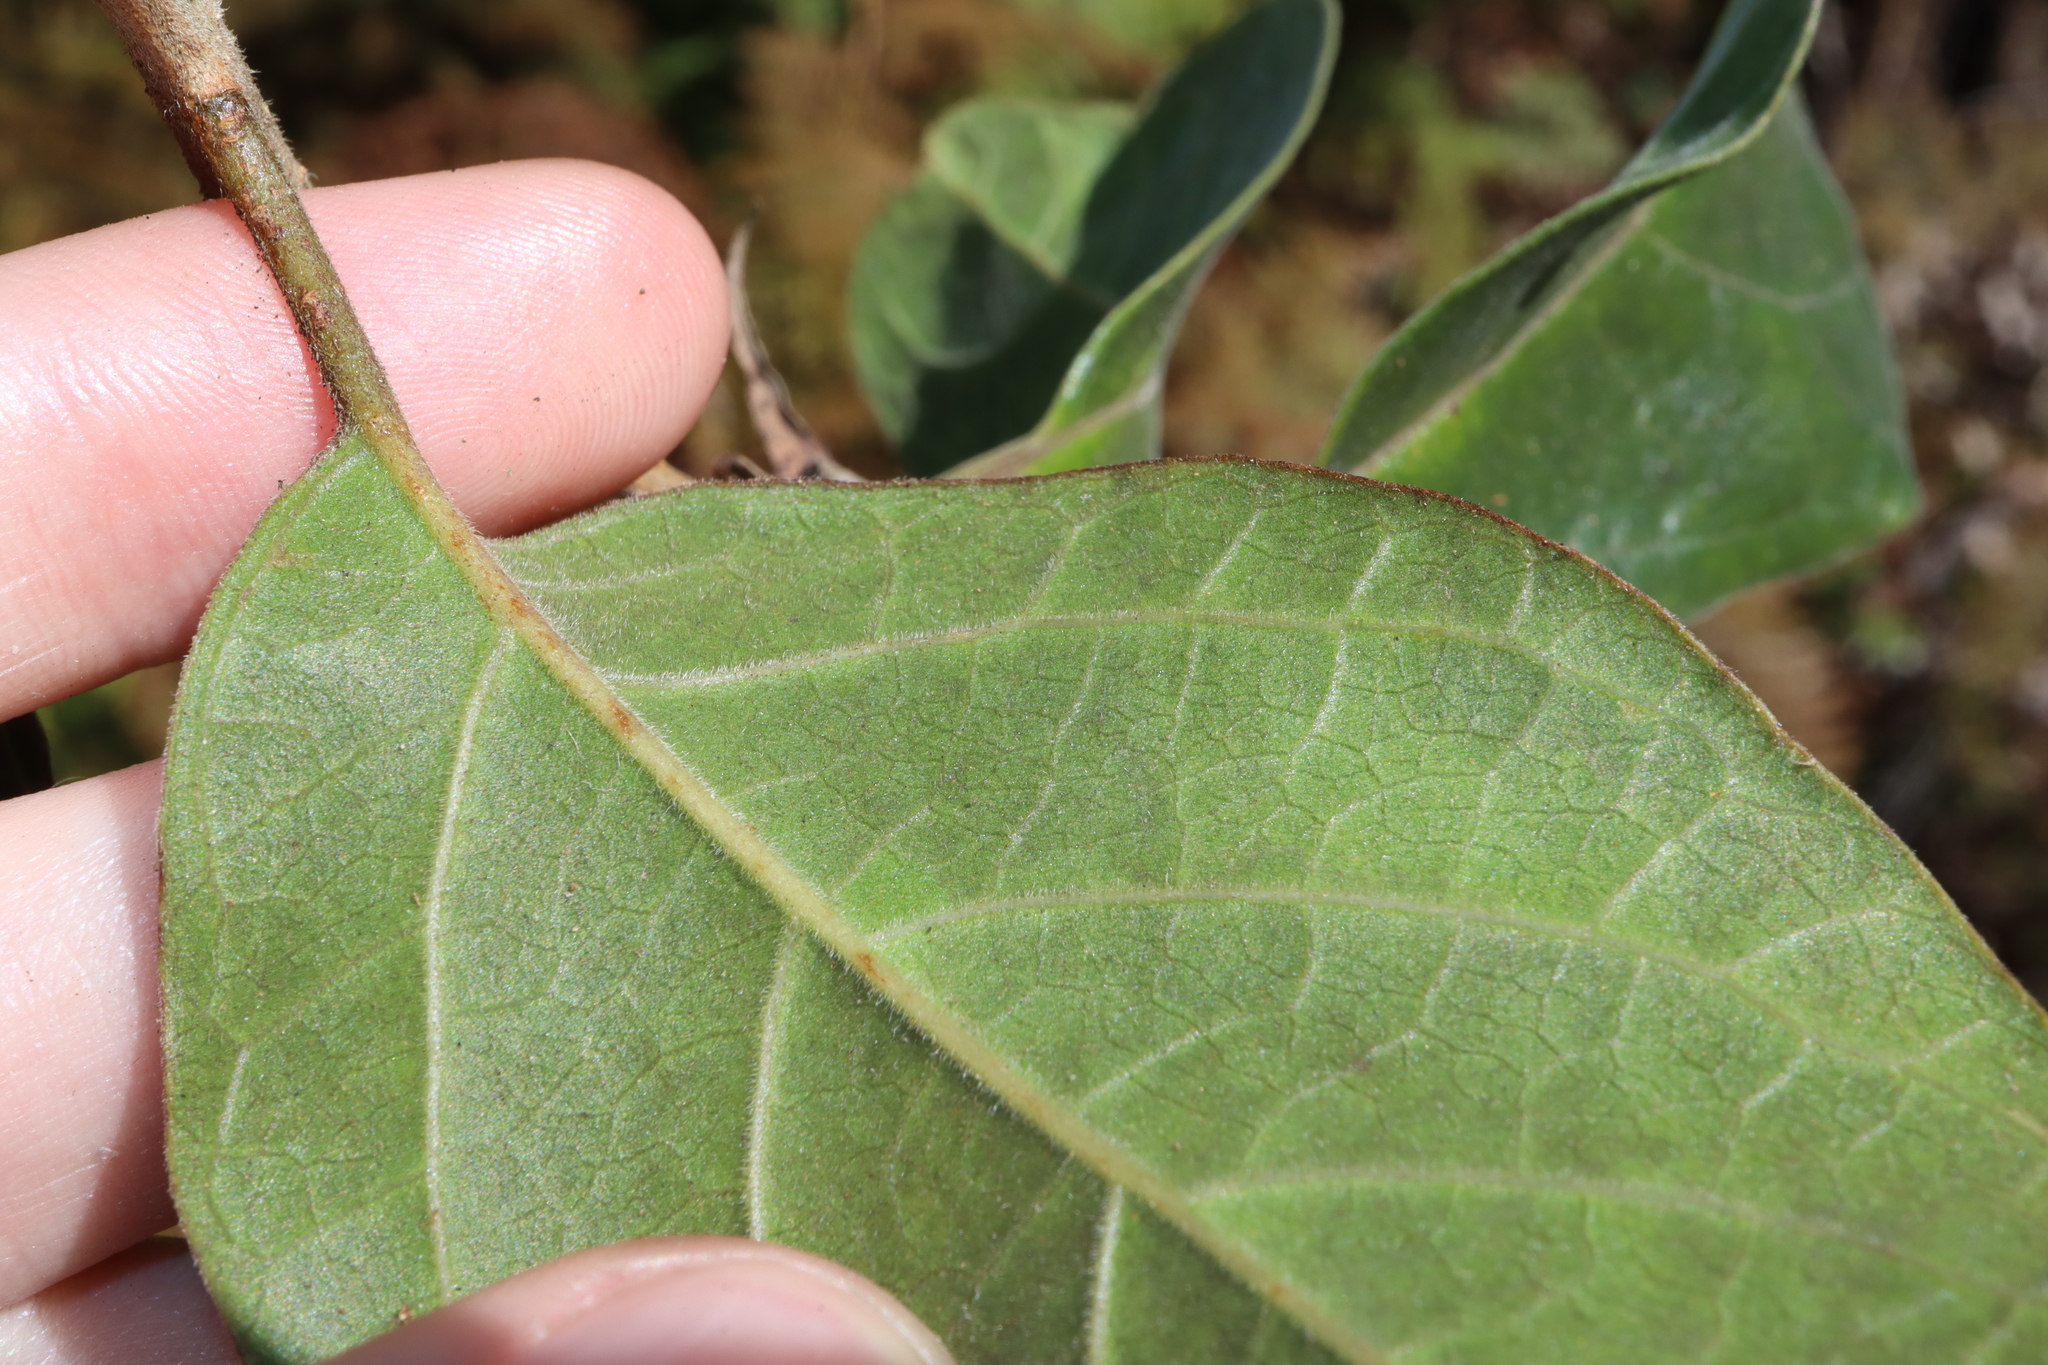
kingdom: Plantae
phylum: Tracheophyta
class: Magnoliopsida
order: Lamiales
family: Lamiaceae
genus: Clerodendrum
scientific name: Clerodendrum tomentosum
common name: Hairy clerodendrum
